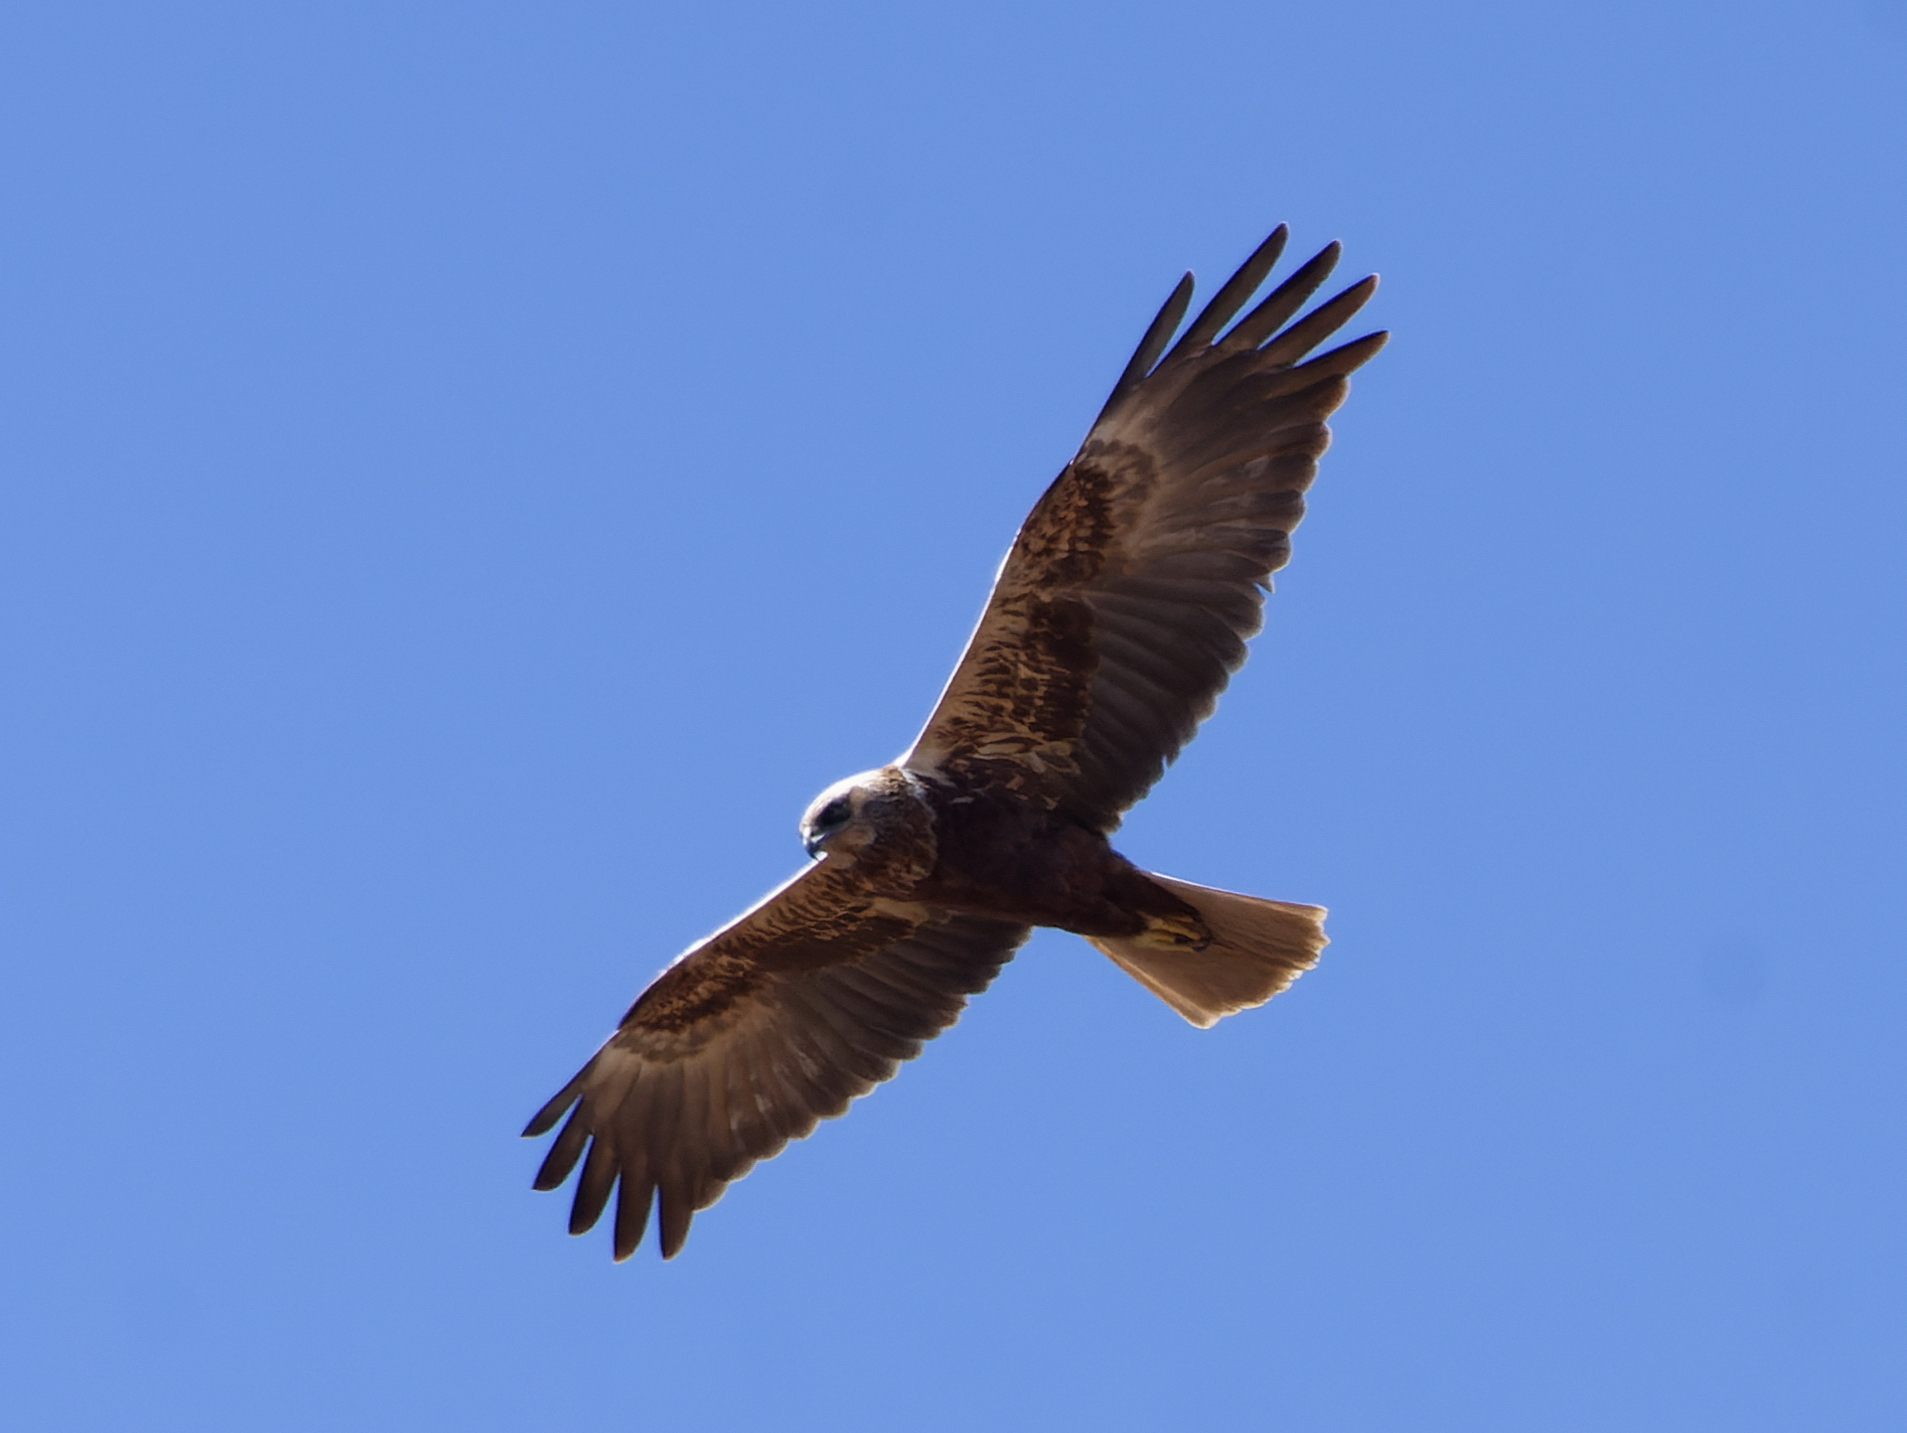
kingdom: Animalia
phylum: Chordata
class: Aves
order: Accipitriformes
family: Accipitridae
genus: Circus
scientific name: Circus aeruginosus
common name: Western marsh harrier
